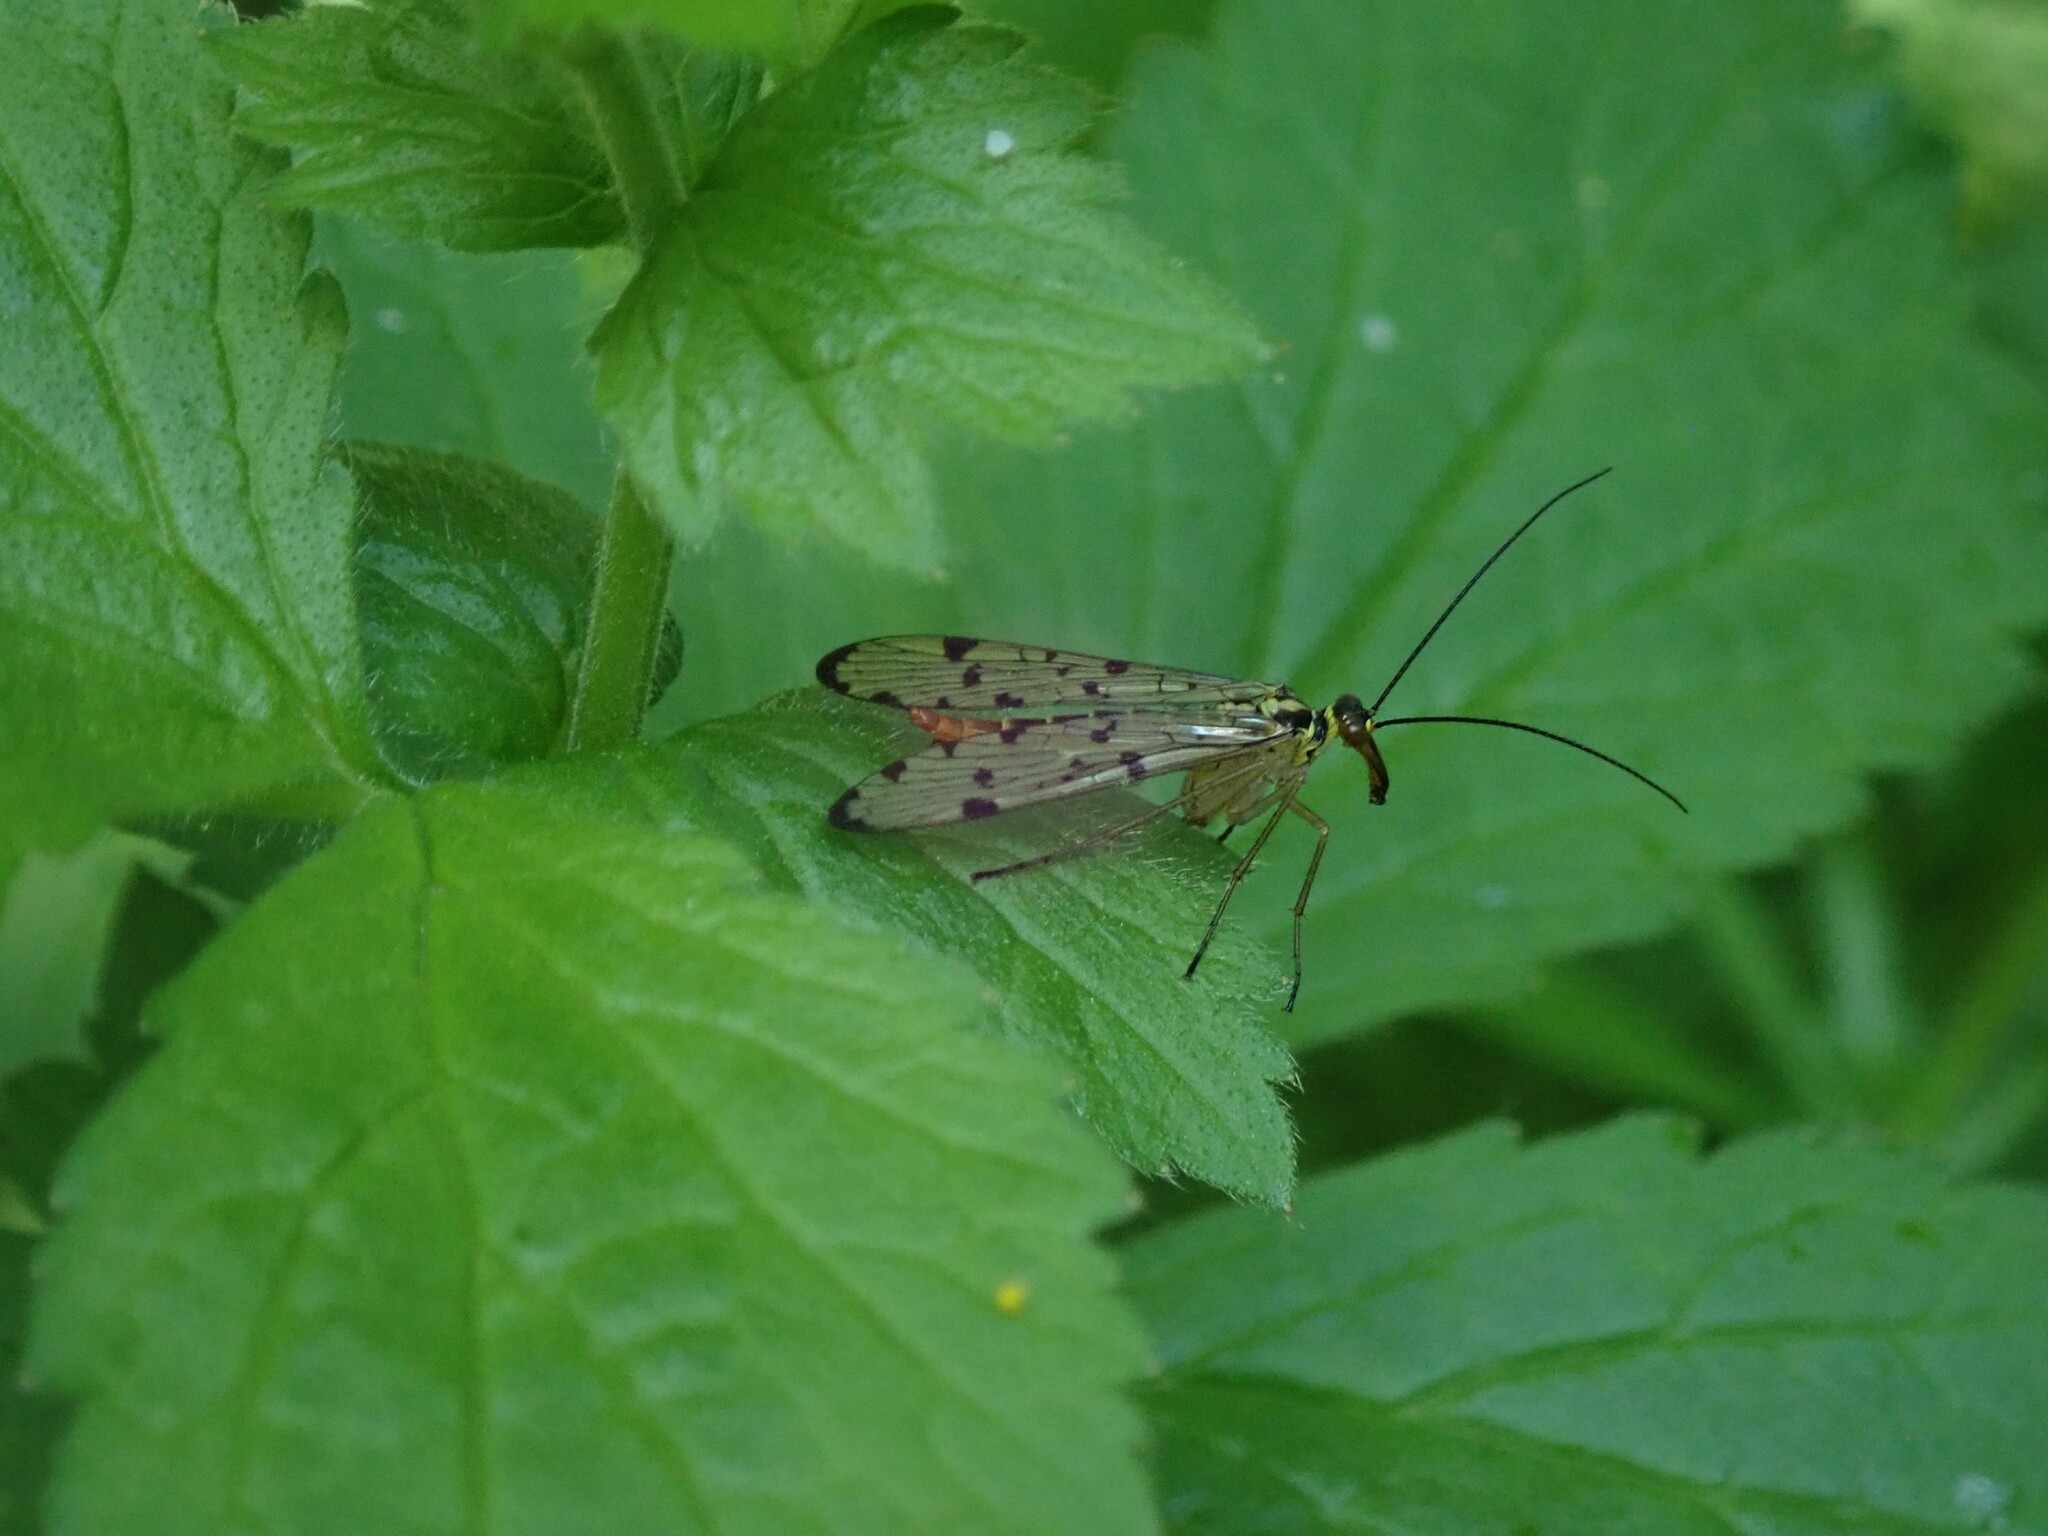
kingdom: Animalia
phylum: Arthropoda
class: Insecta
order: Mecoptera
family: Panorpidae
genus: Panorpa
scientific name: Panorpa germanica
